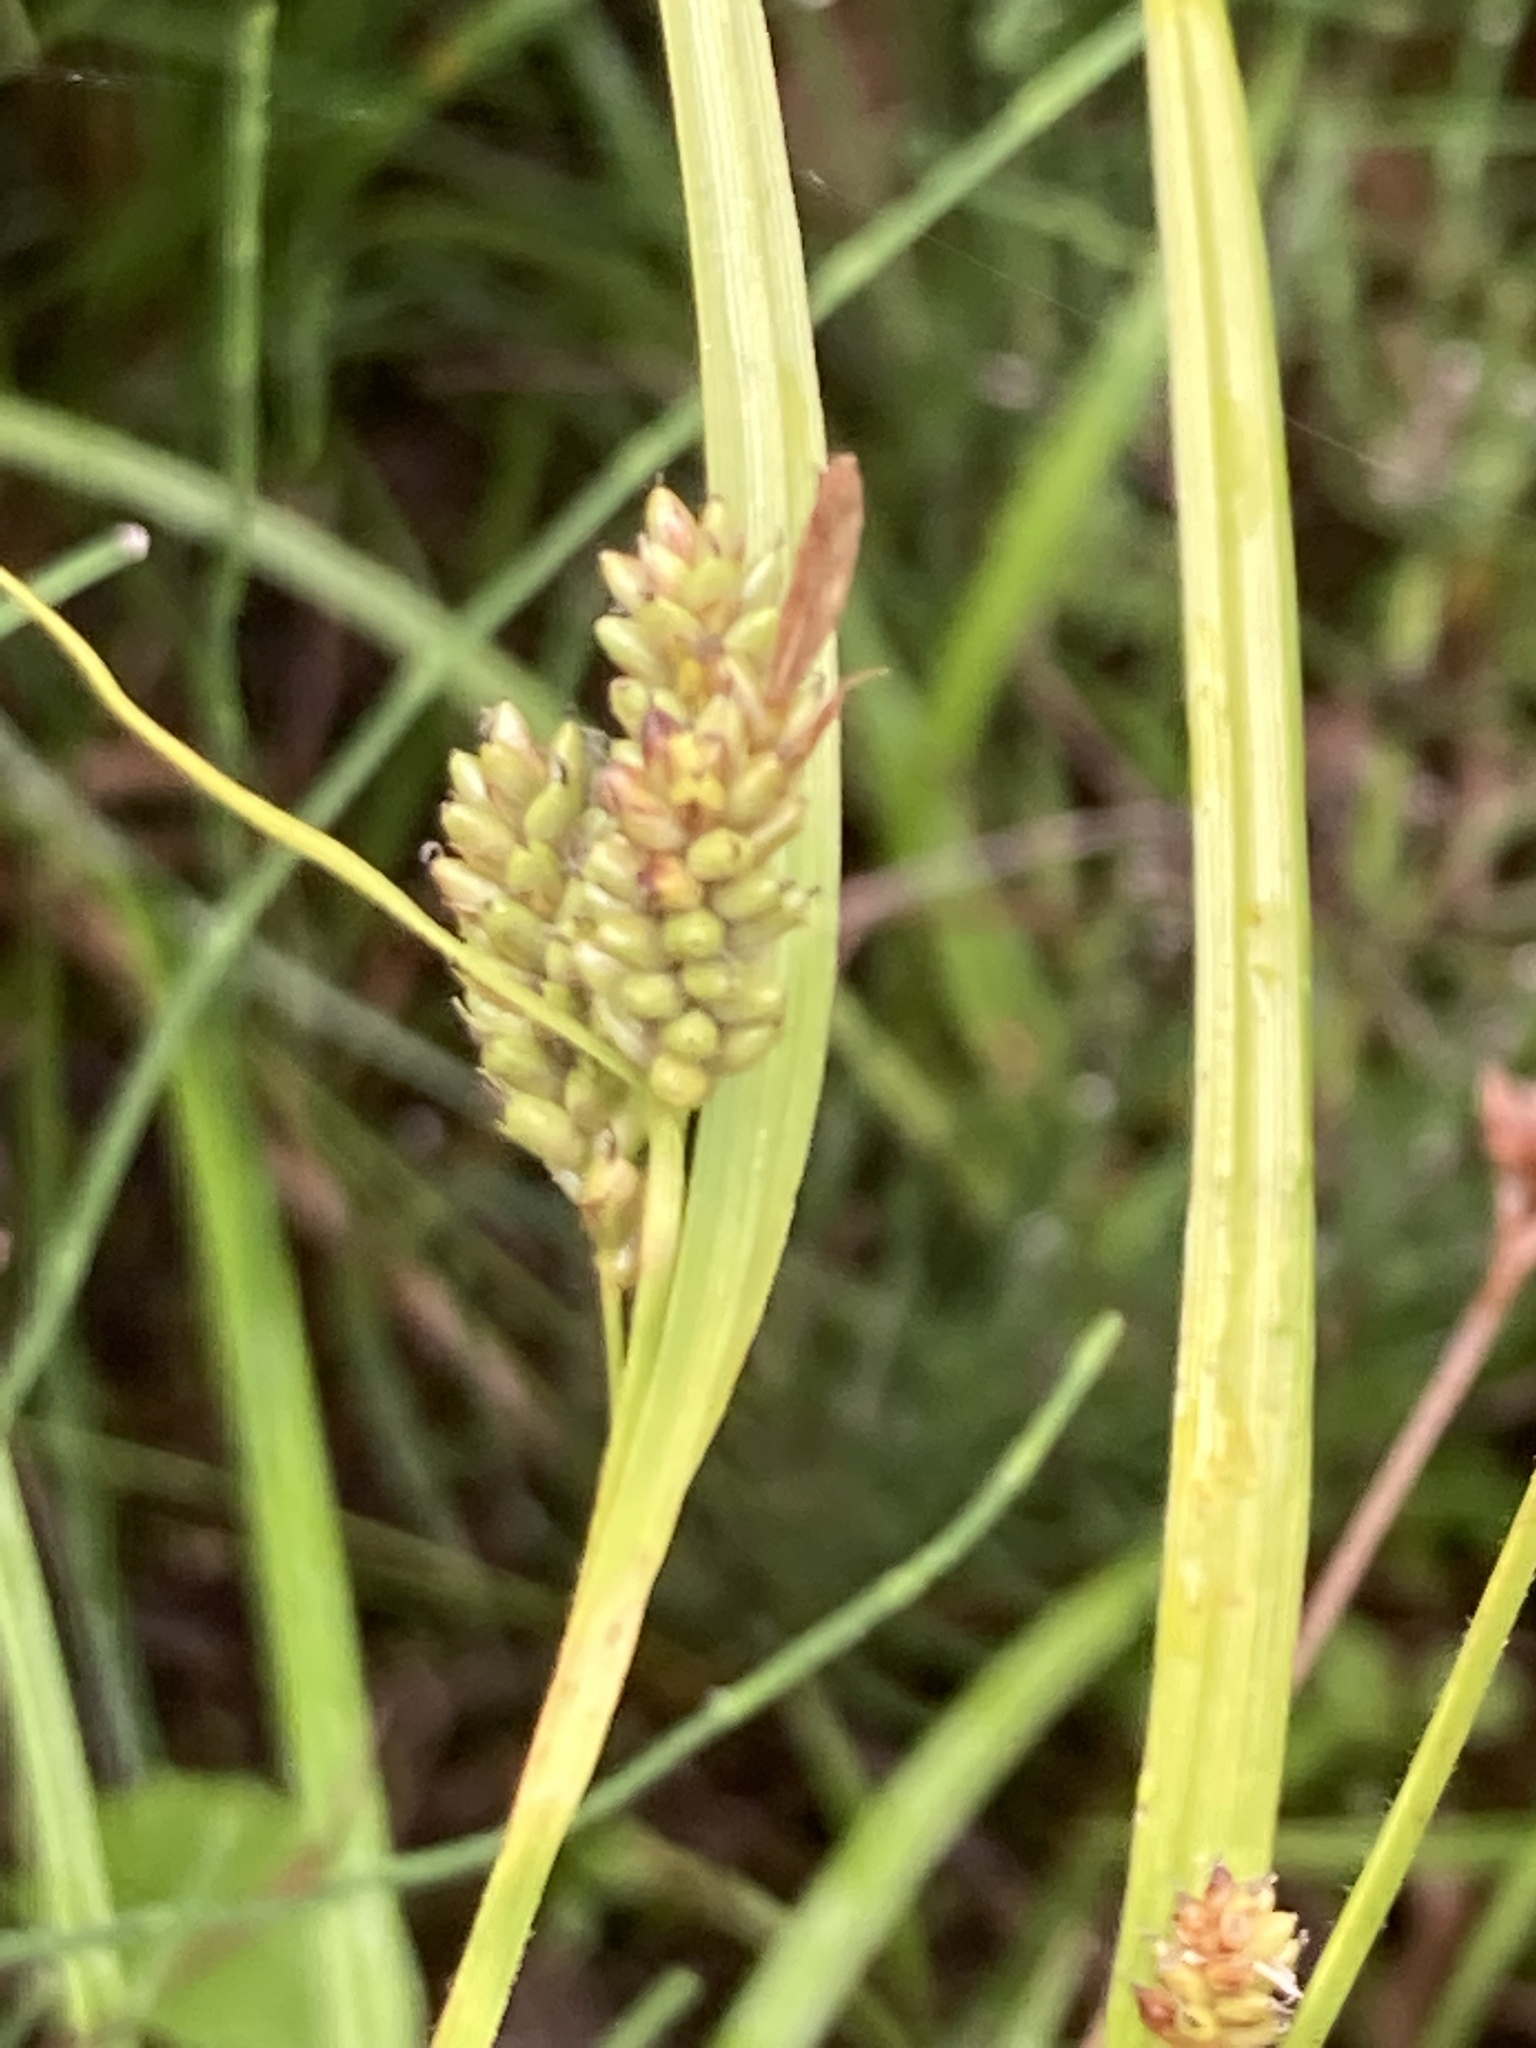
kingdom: Plantae
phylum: Tracheophyta
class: Liliopsida
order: Poales
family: Cyperaceae
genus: Carex
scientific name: Carex pallescens
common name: Pale sedge
